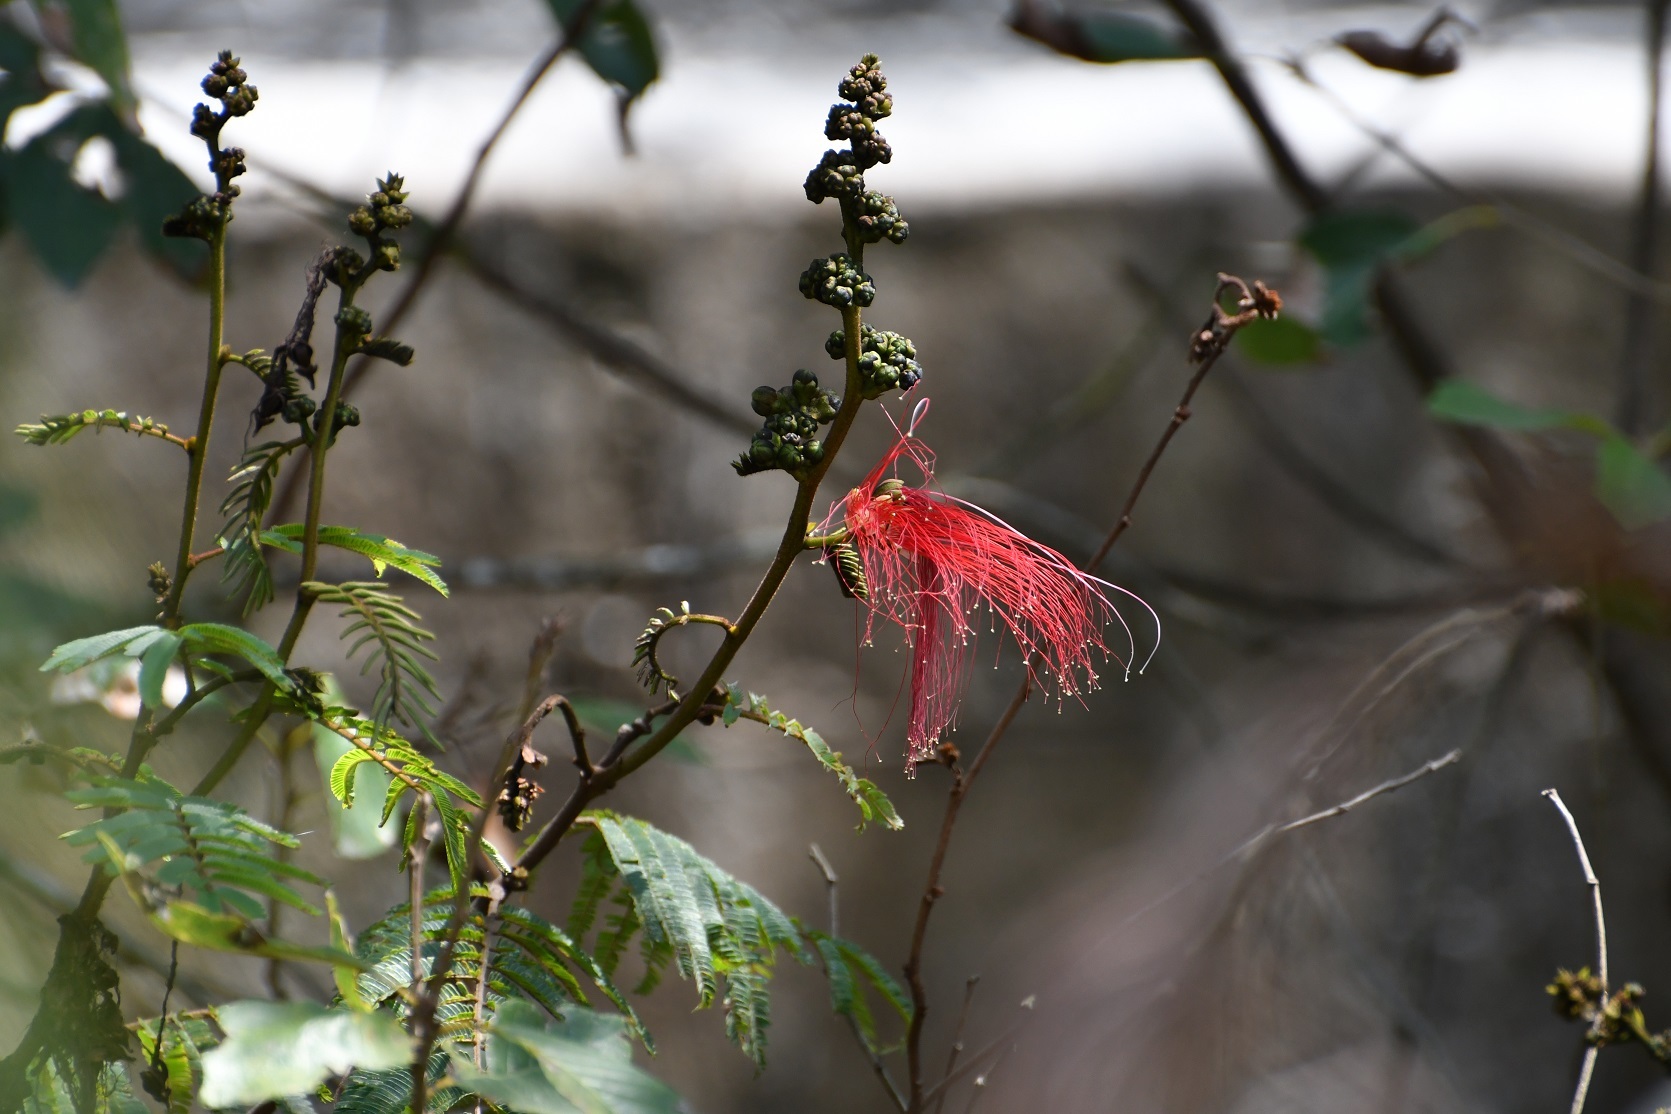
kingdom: Plantae
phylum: Tracheophyta
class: Magnoliopsida
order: Fabales
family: Fabaceae
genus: Calliandra
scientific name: Calliandra houstoniana
